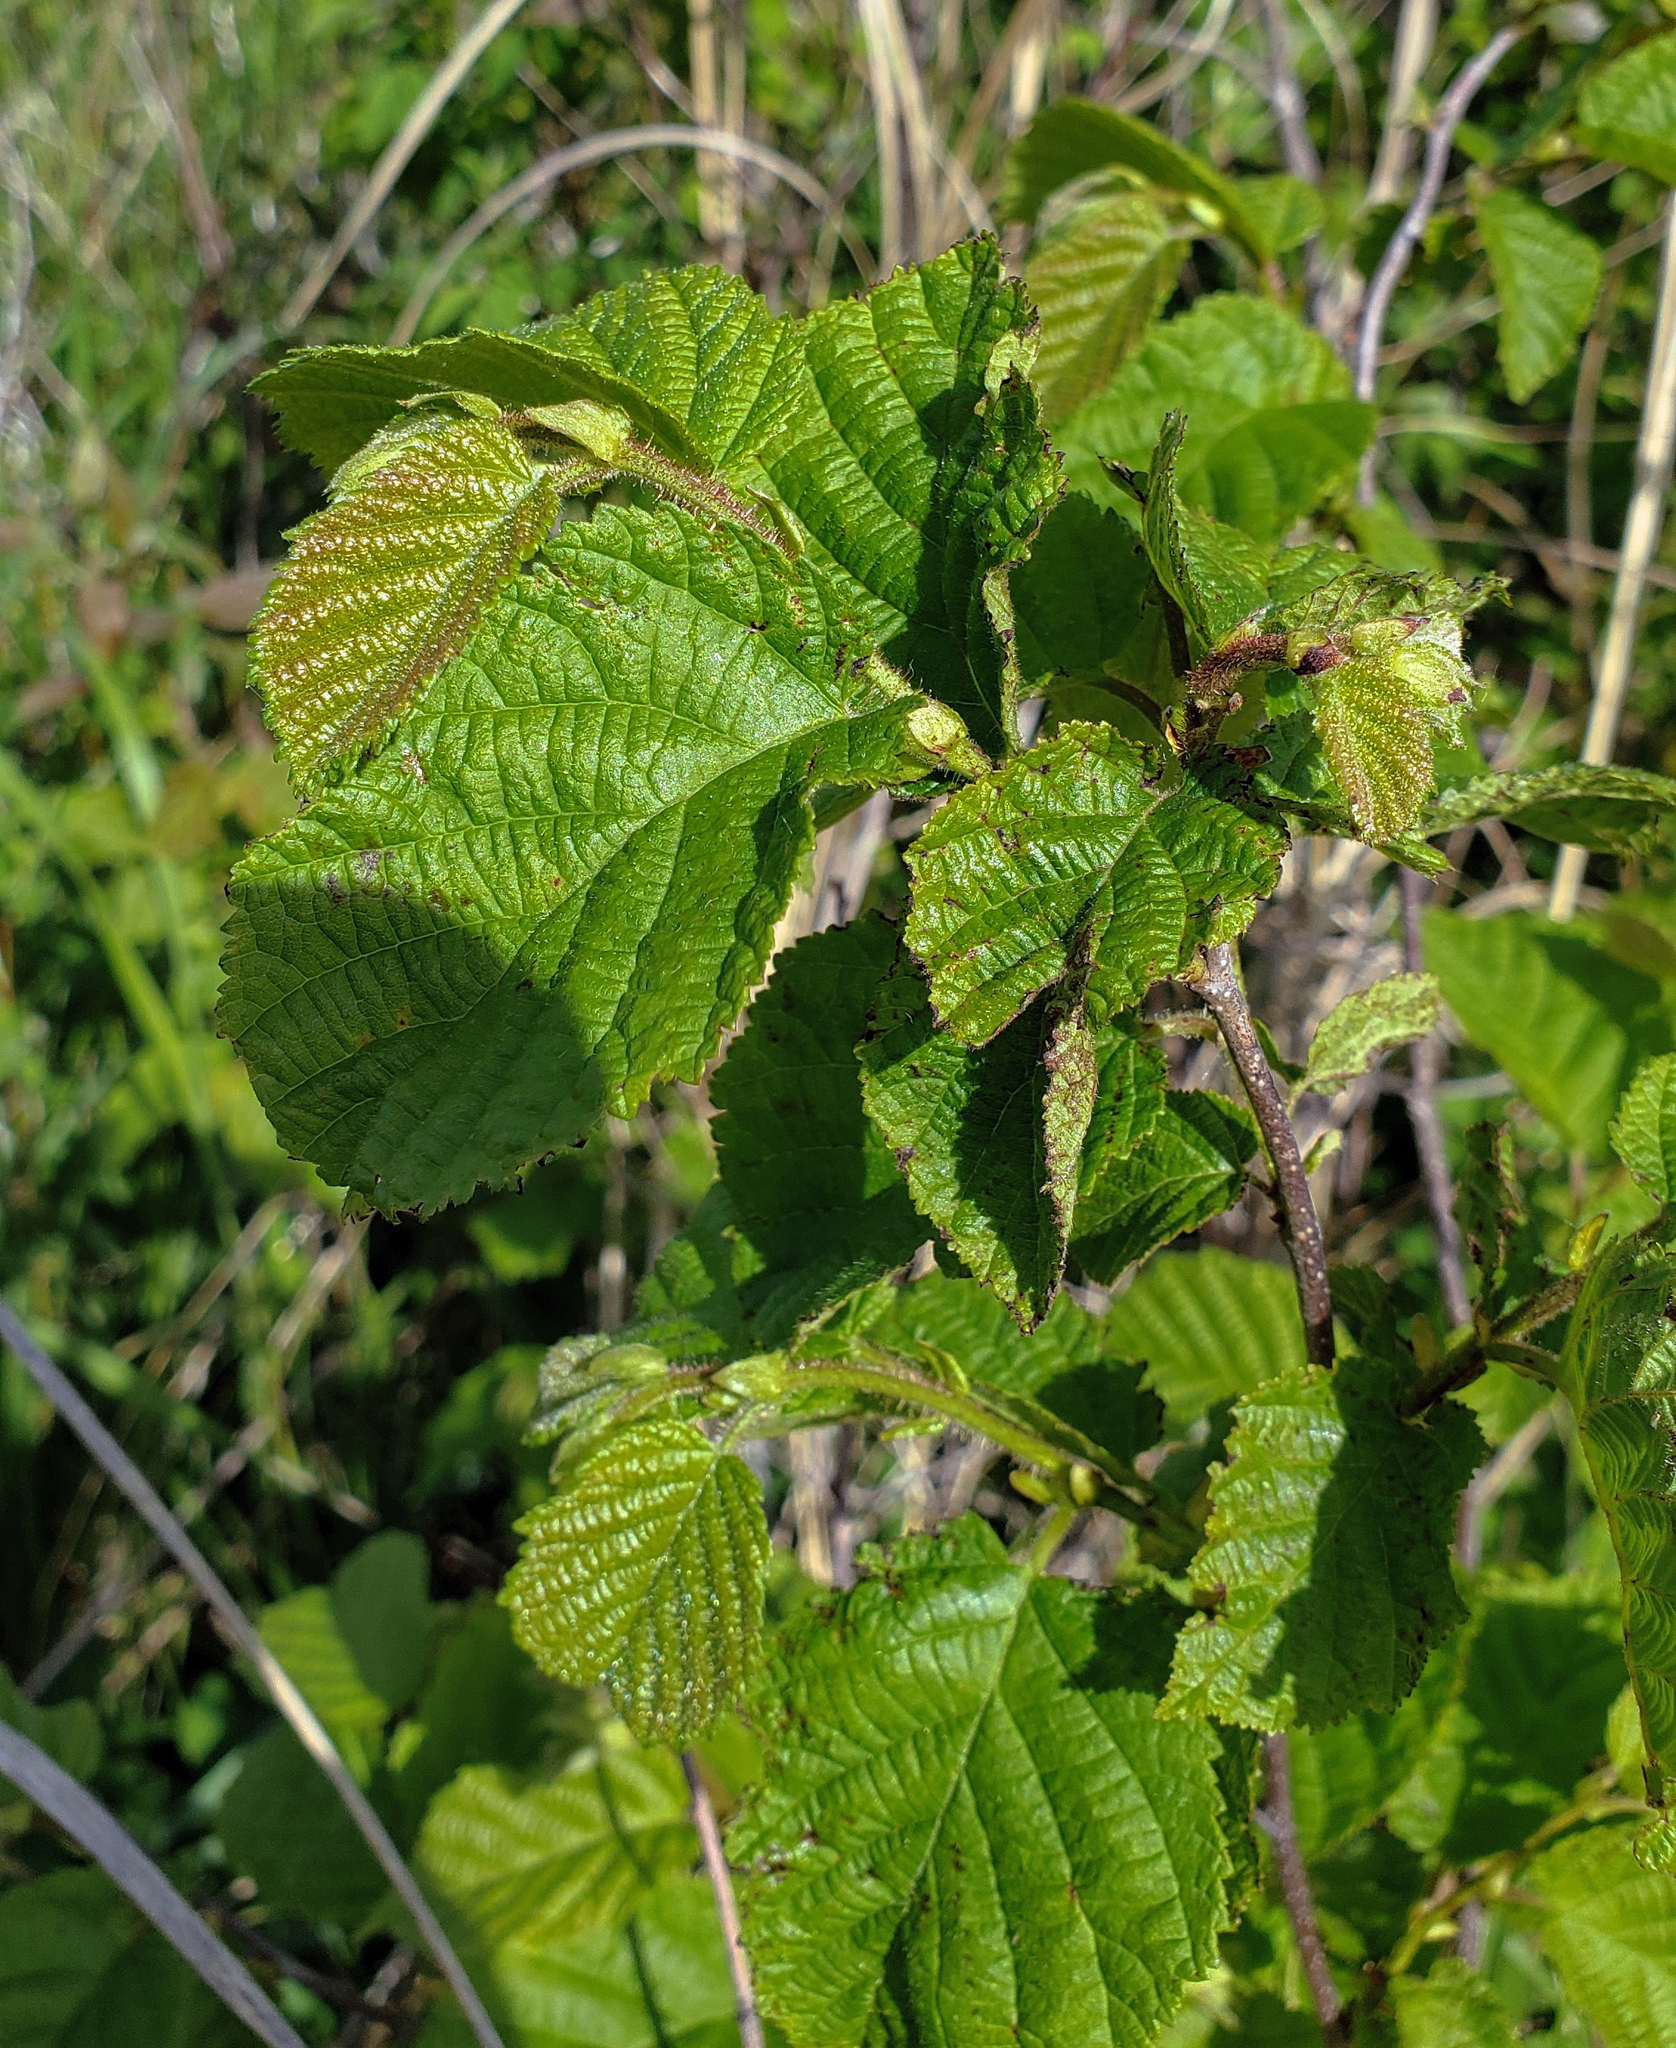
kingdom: Plantae
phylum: Tracheophyta
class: Magnoliopsida
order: Fagales
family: Betulaceae
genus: Corylus
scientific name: Corylus americana
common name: American hazel
